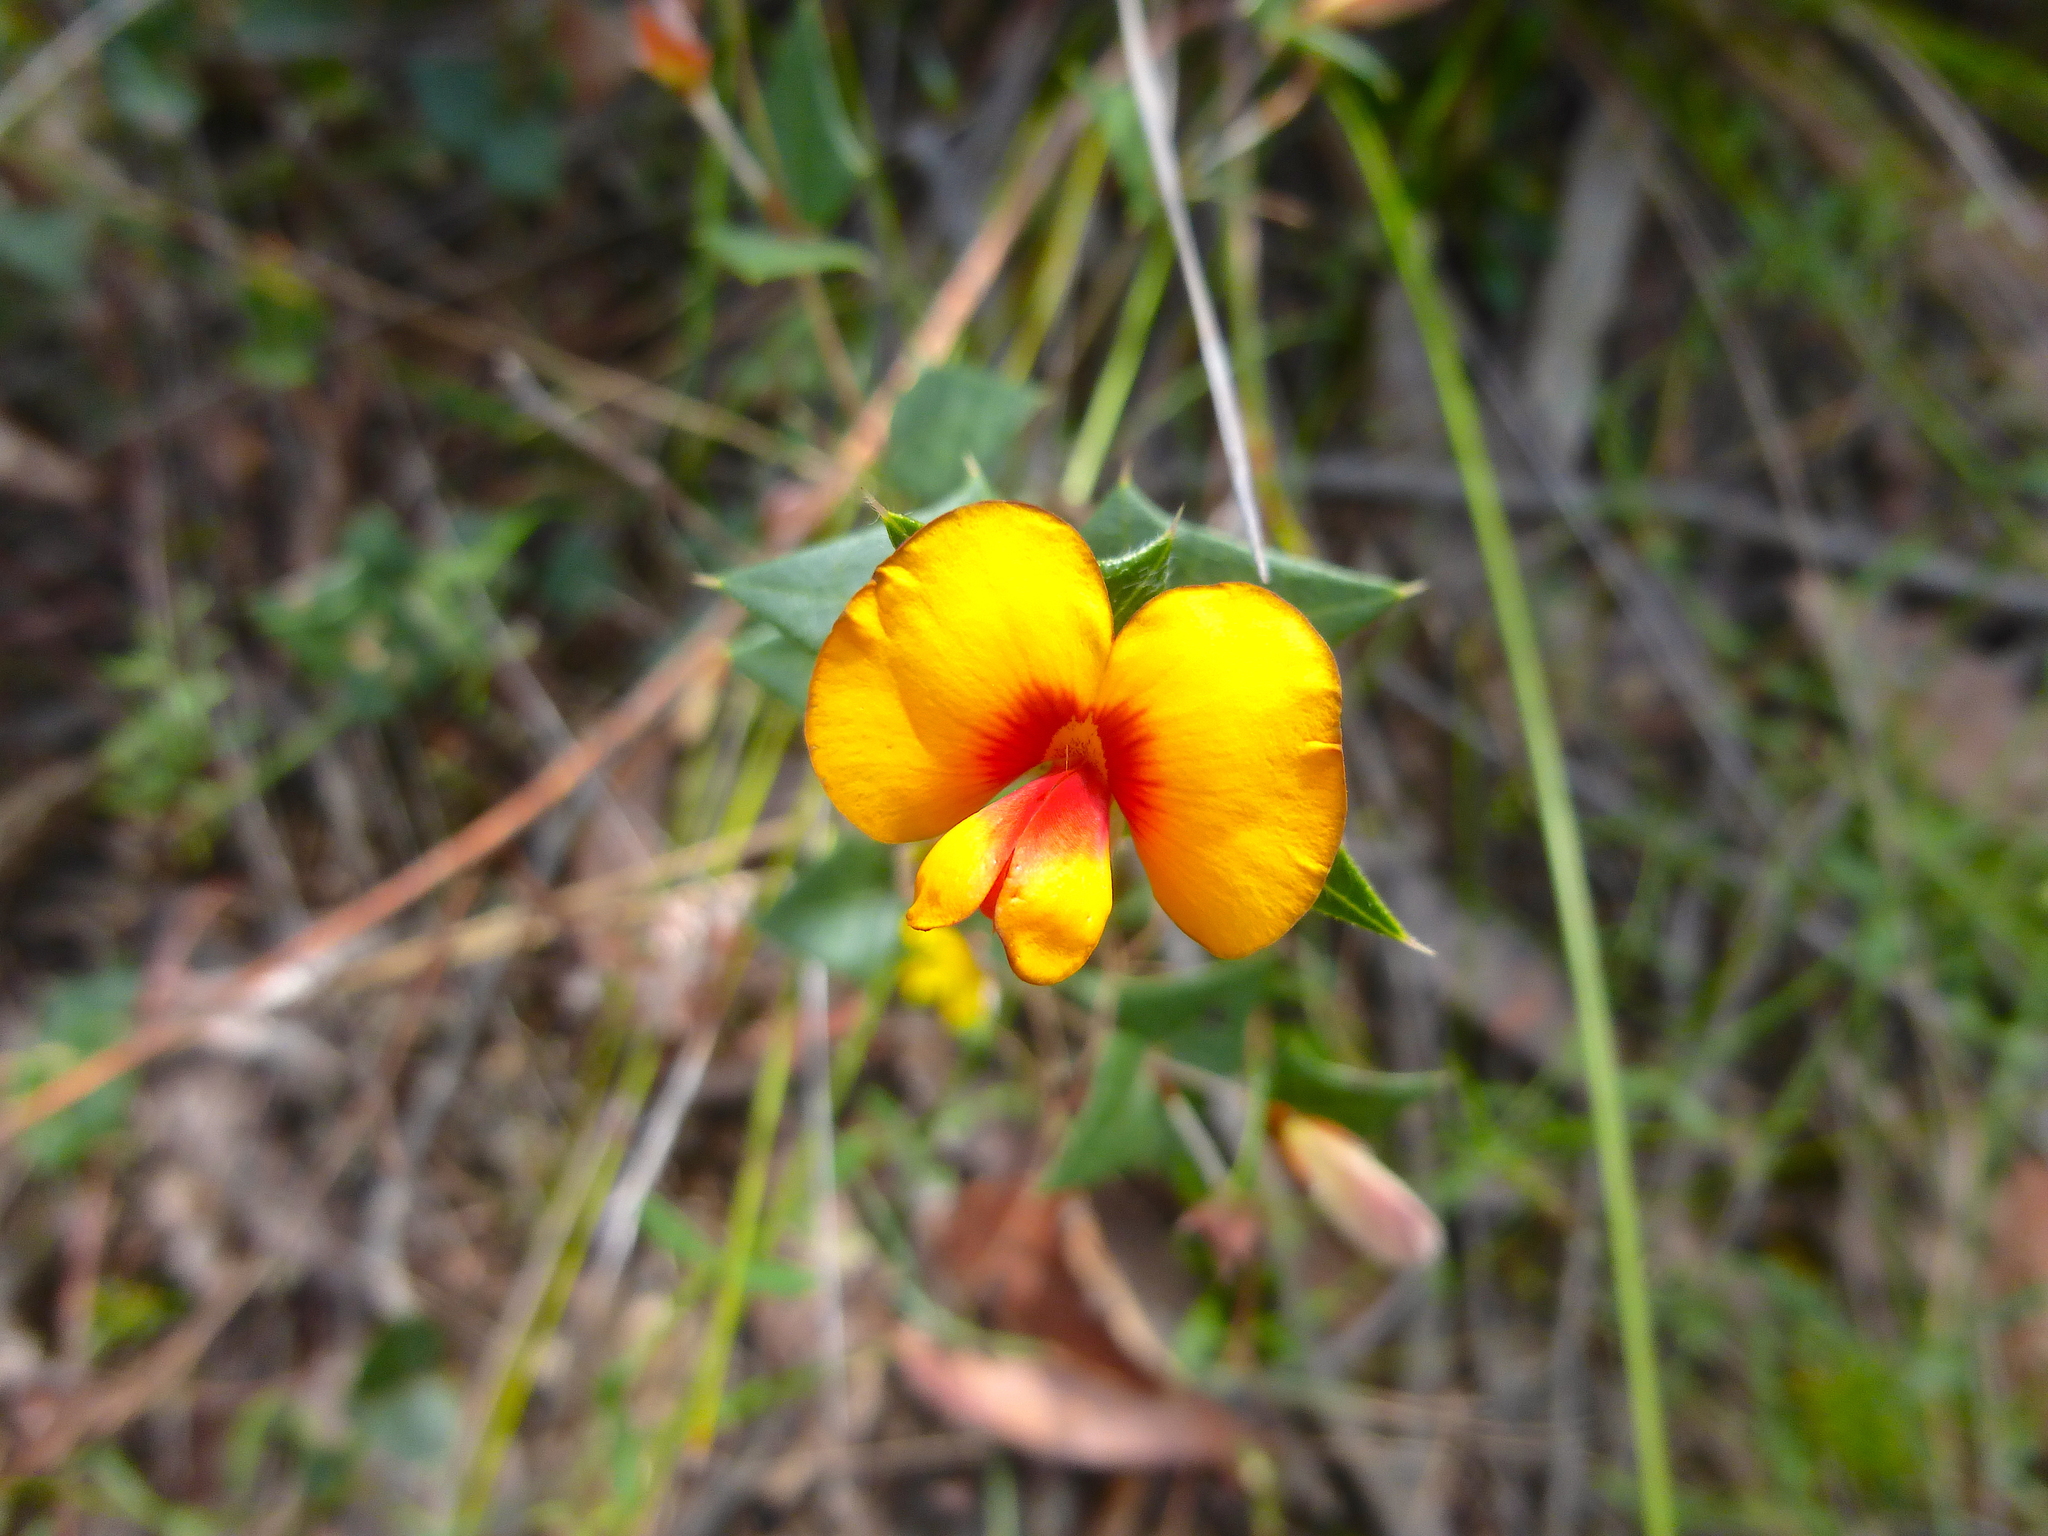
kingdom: Plantae
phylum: Tracheophyta
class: Magnoliopsida
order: Fabales
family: Fabaceae
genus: Platylobium
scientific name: Platylobium obtusangulum
